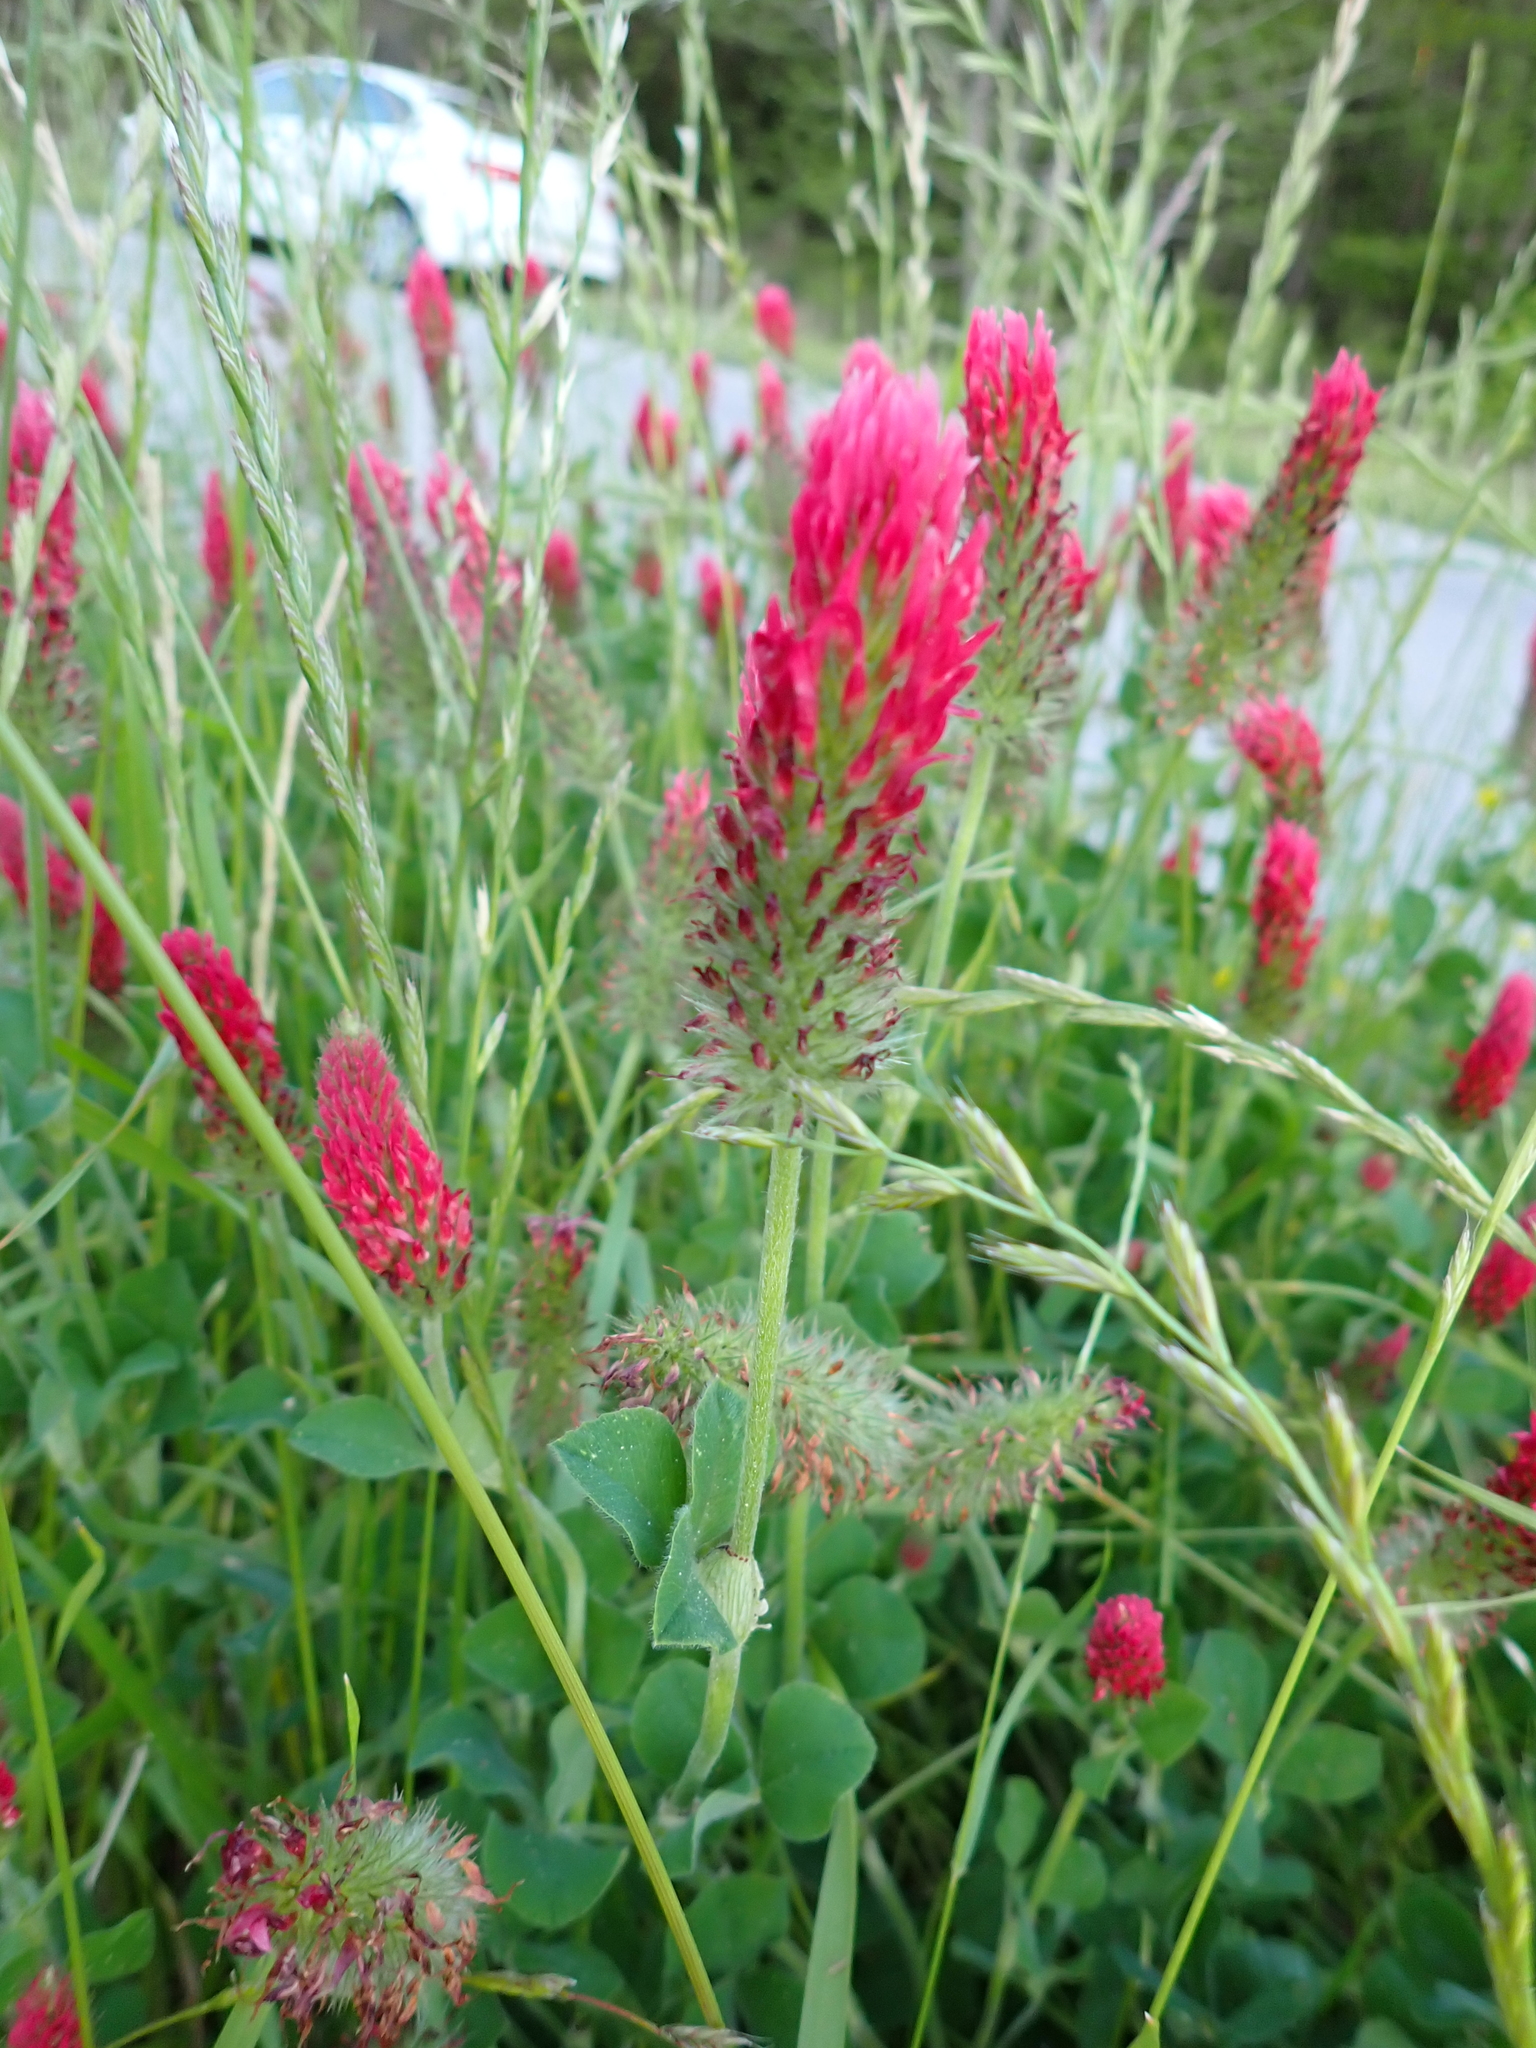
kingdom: Plantae
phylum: Tracheophyta
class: Magnoliopsida
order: Fabales
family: Fabaceae
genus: Trifolium
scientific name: Trifolium incarnatum
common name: Crimson clover
